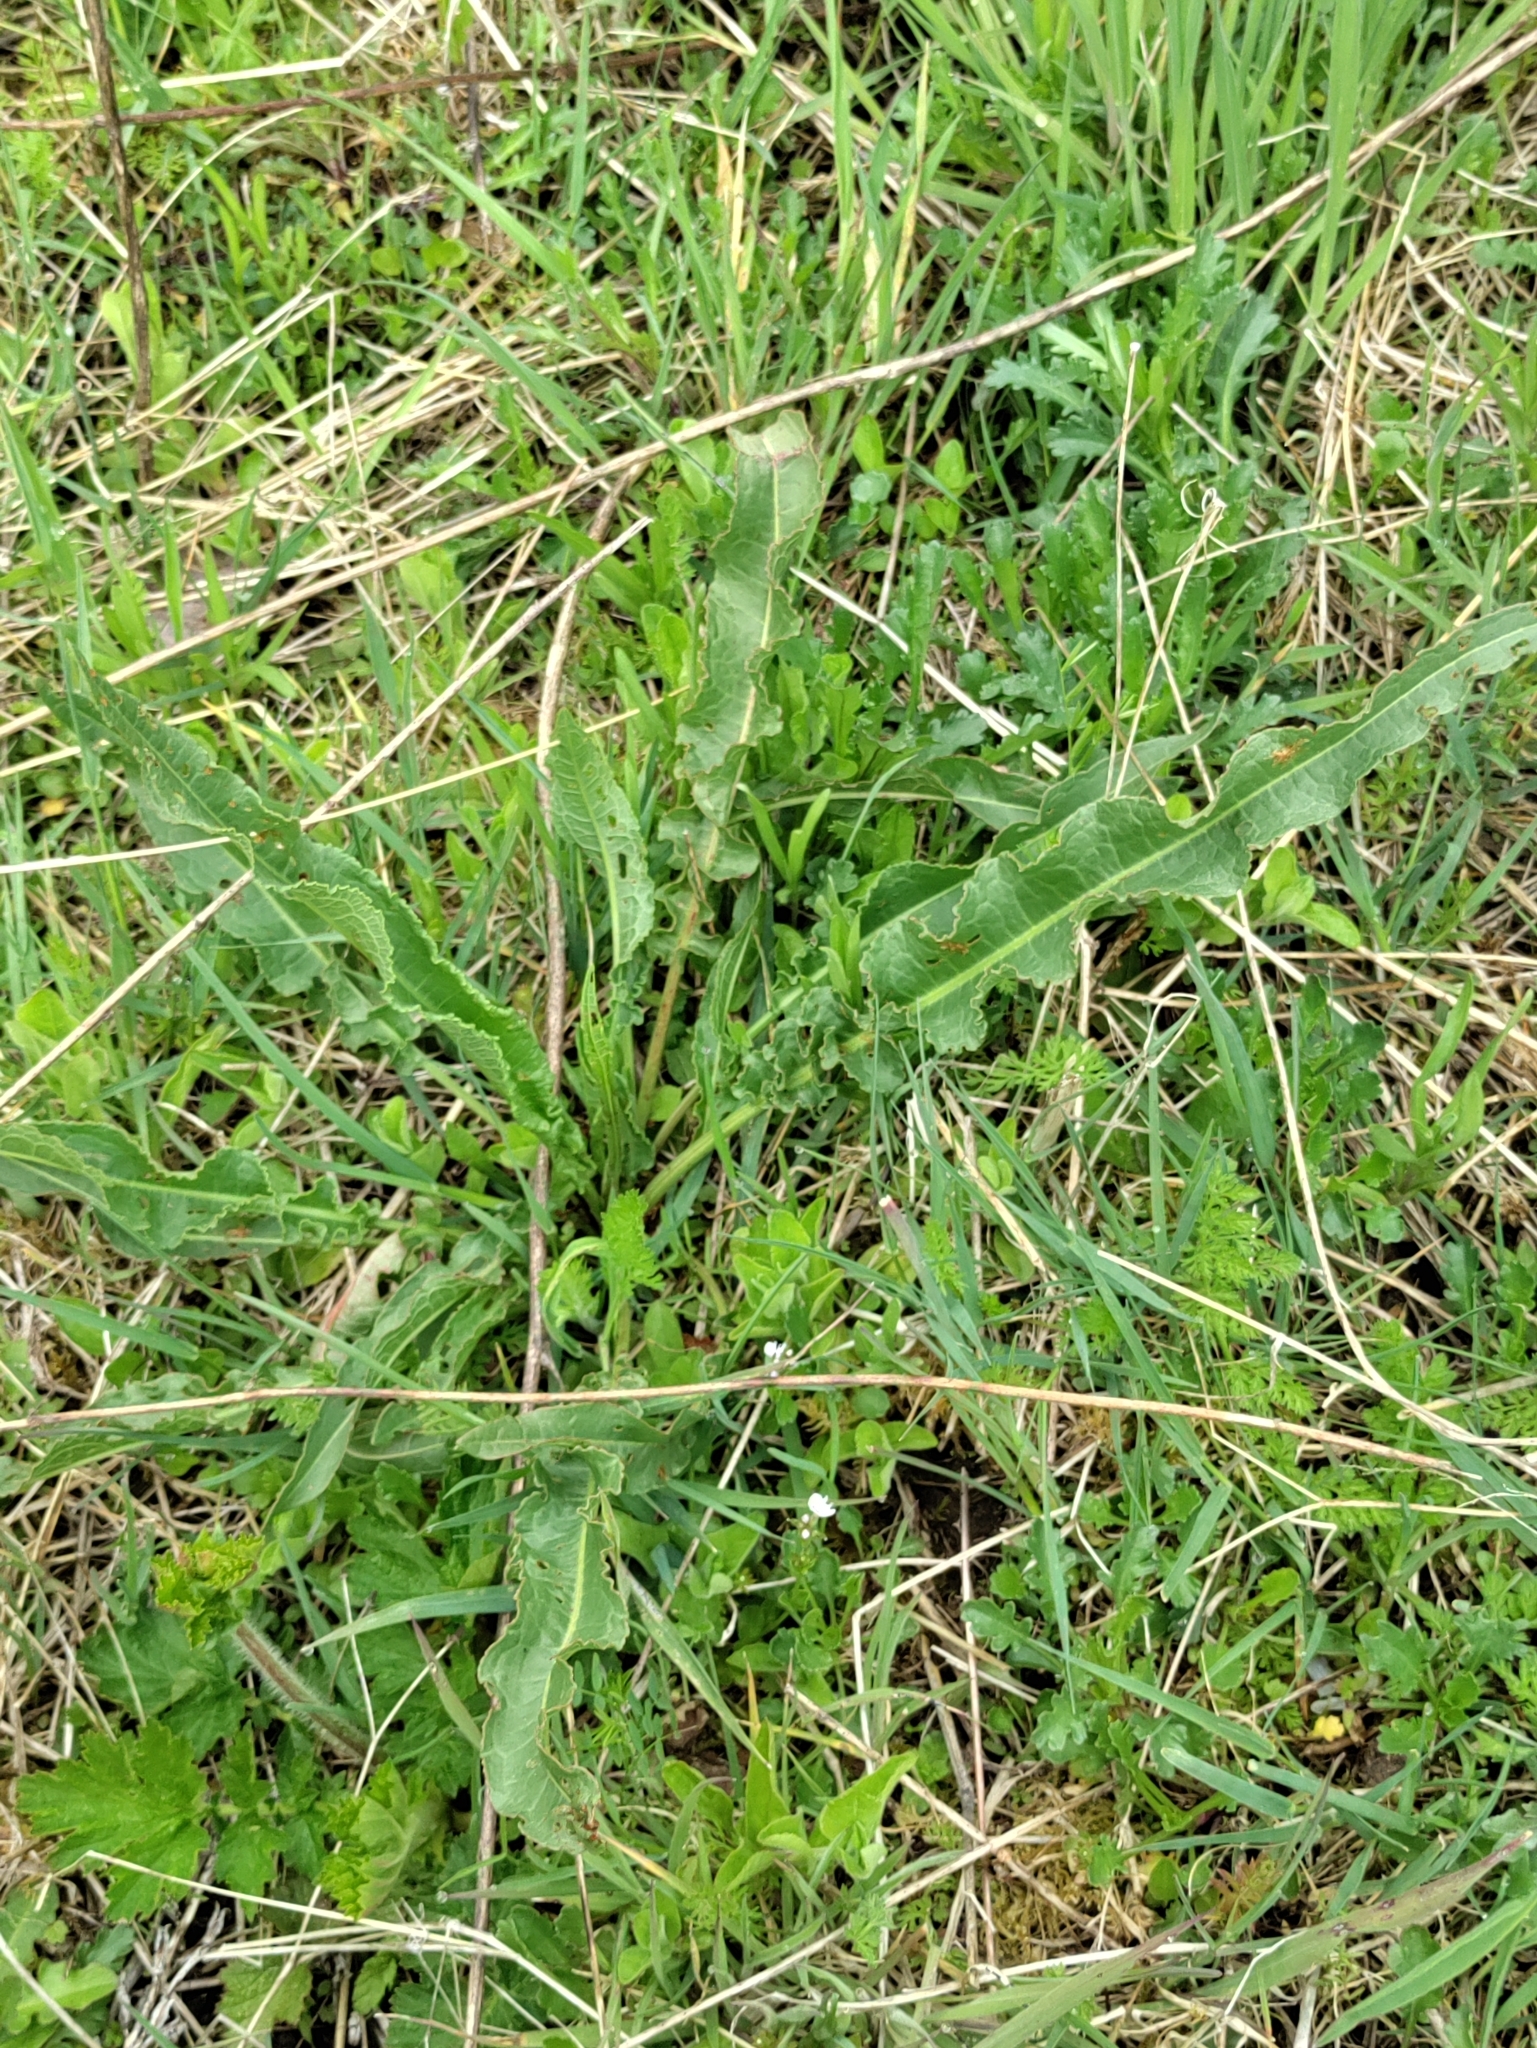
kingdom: Plantae
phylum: Tracheophyta
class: Magnoliopsida
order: Caryophyllales
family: Polygonaceae
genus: Rumex
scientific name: Rumex crispus
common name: Curled dock
